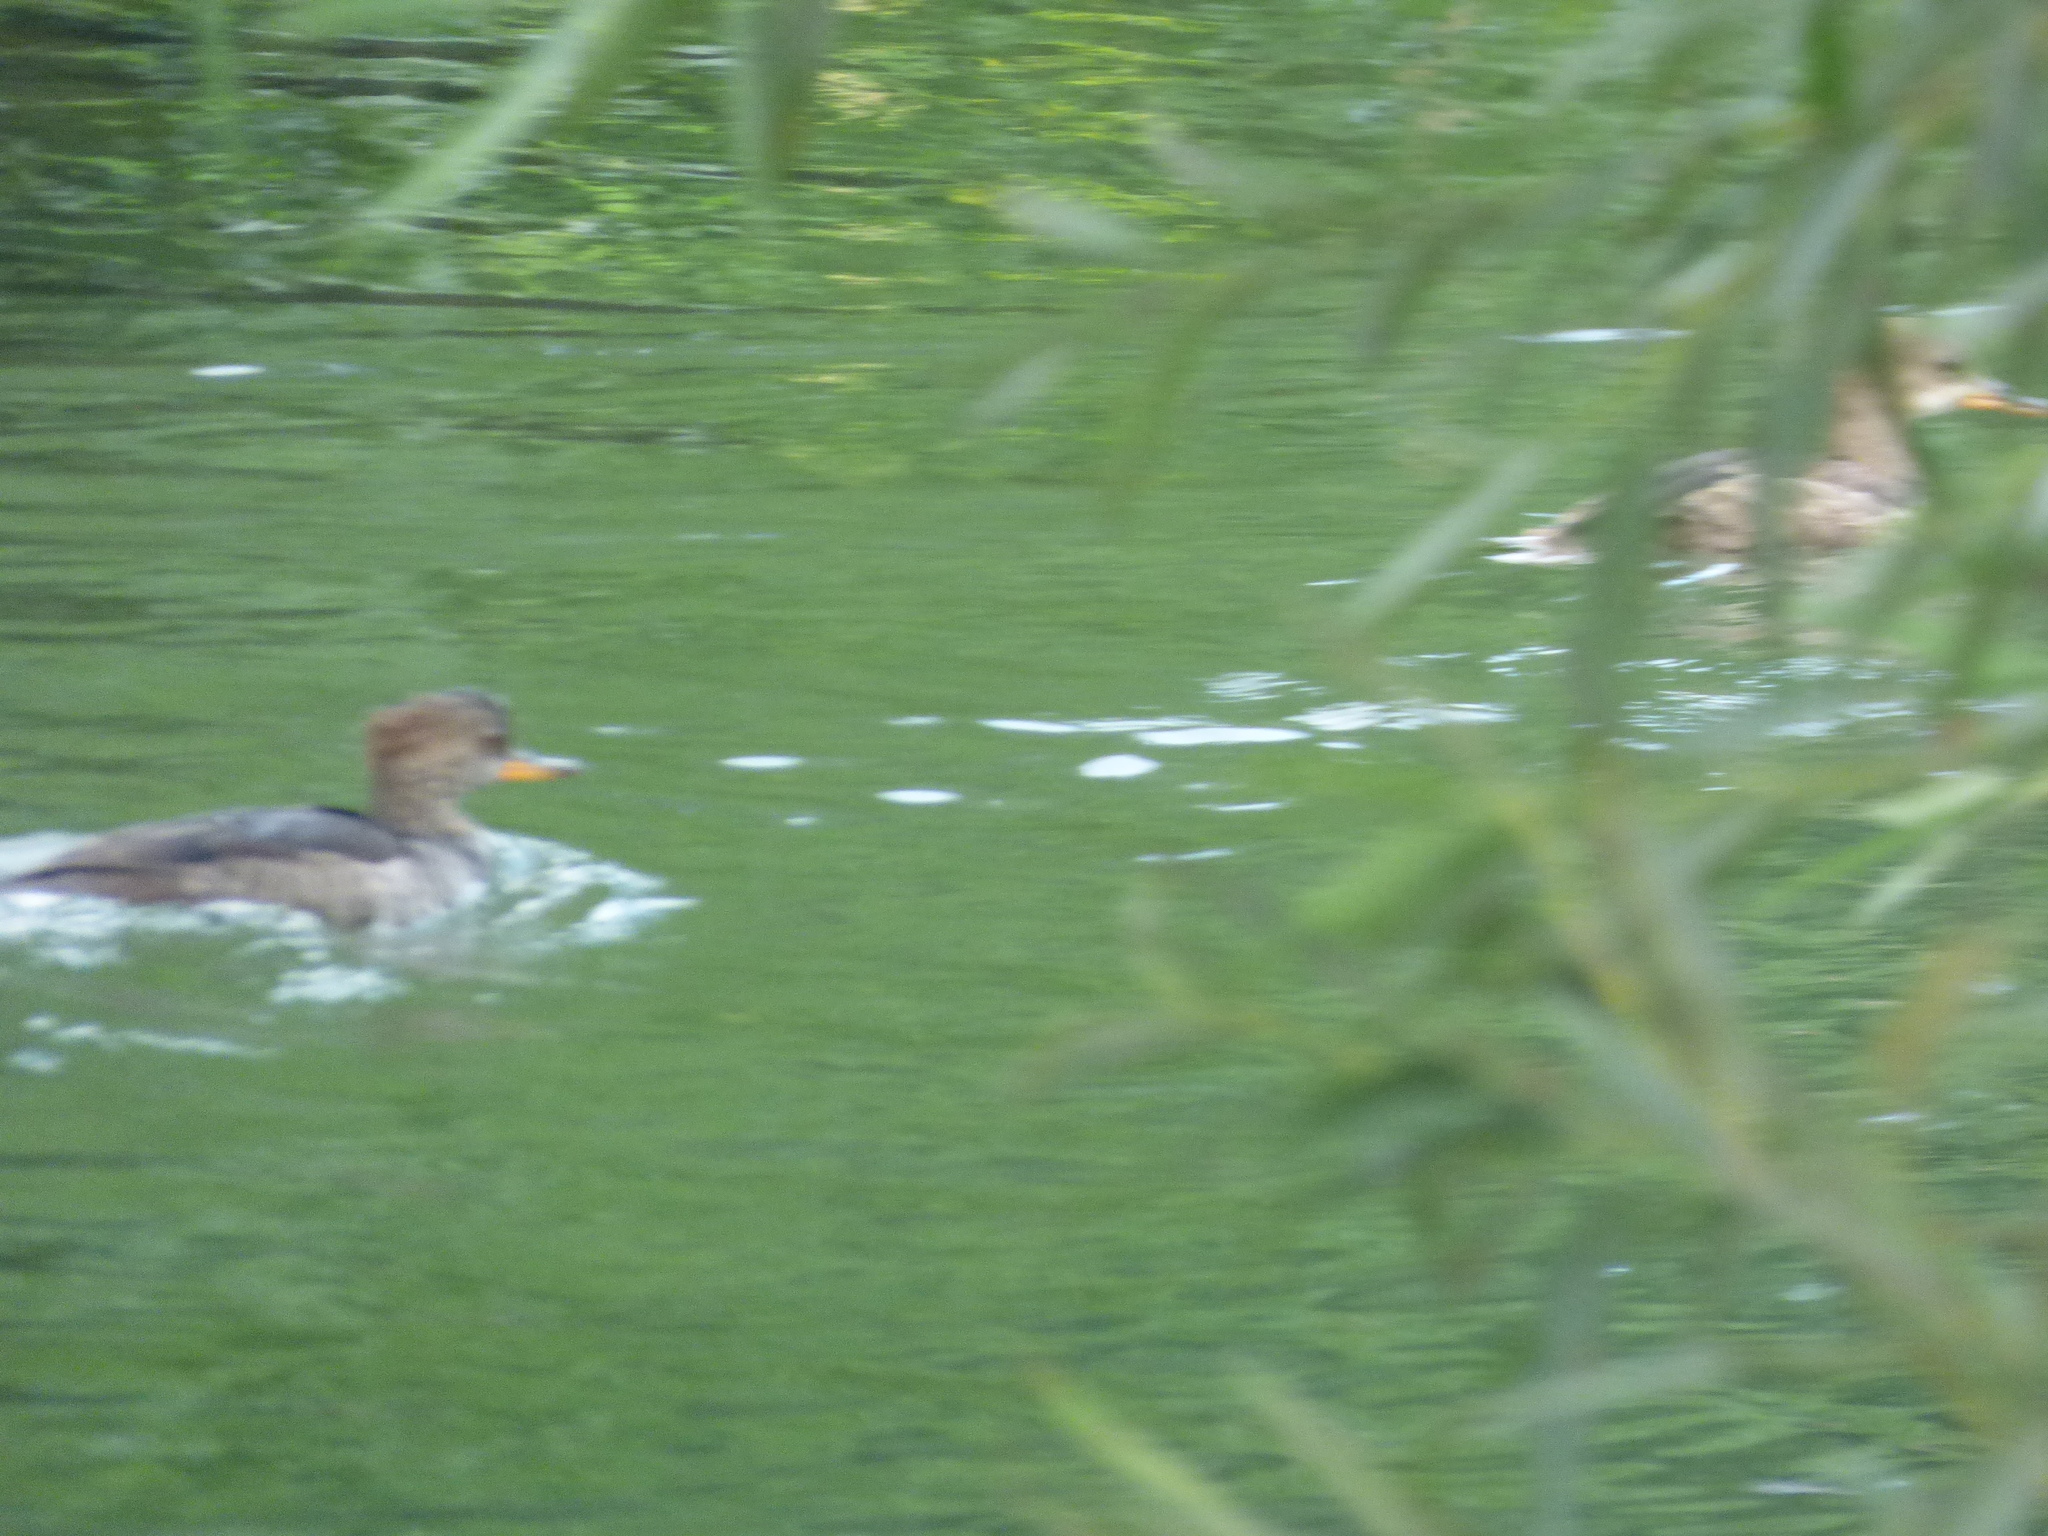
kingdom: Animalia
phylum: Chordata
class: Aves
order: Anseriformes
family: Anatidae
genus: Lophodytes
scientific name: Lophodytes cucullatus
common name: Hooded merganser
